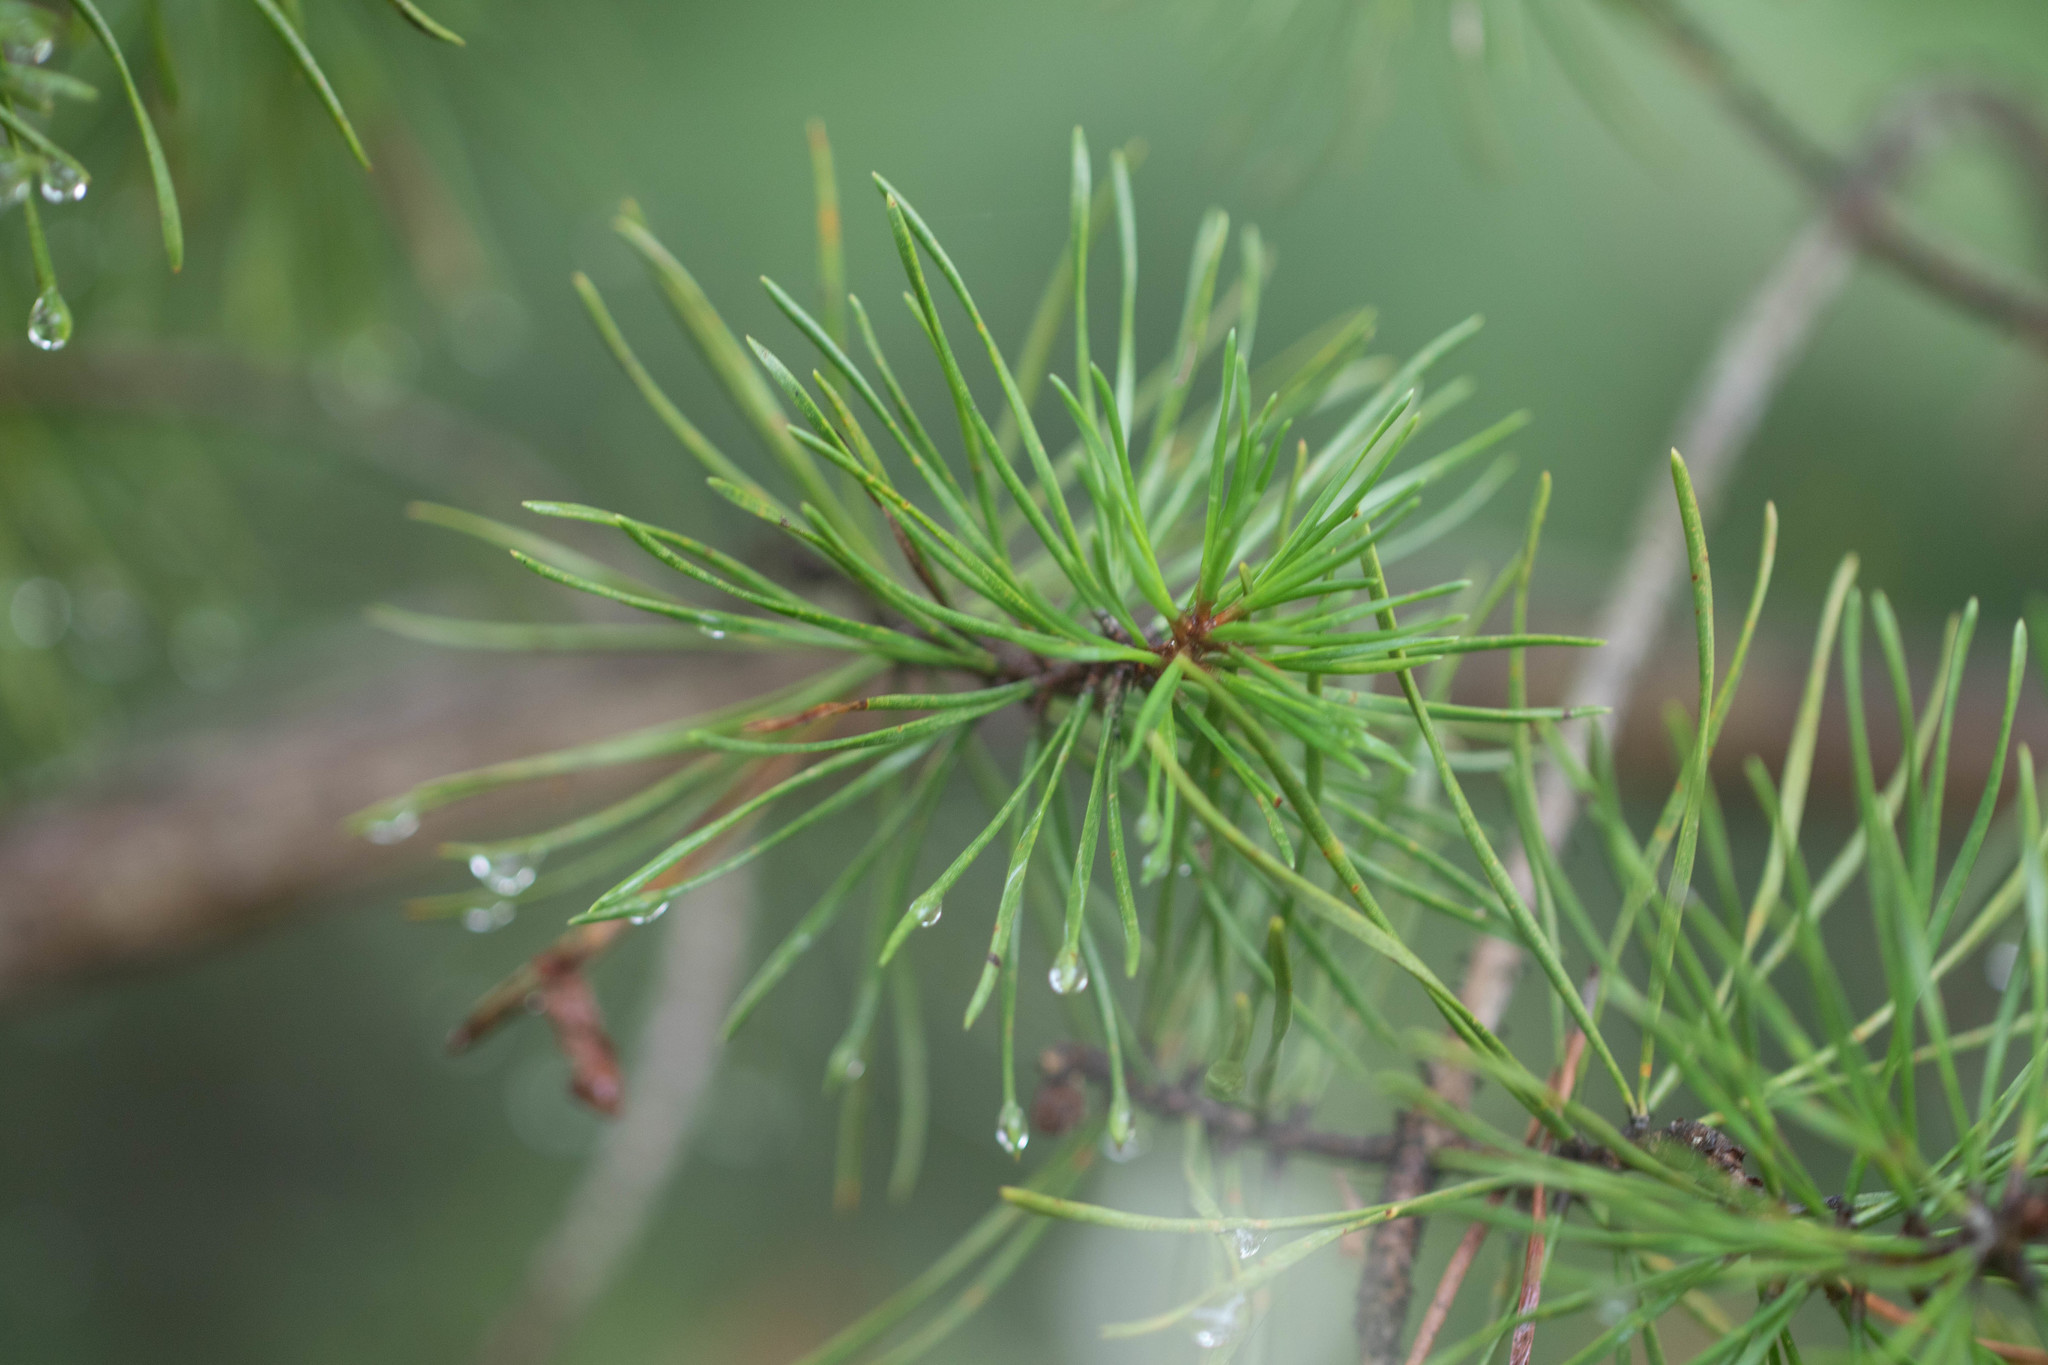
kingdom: Plantae
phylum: Tracheophyta
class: Pinopsida
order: Pinales
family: Pinaceae
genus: Pinus
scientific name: Pinus virginiana
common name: Scrub pine
